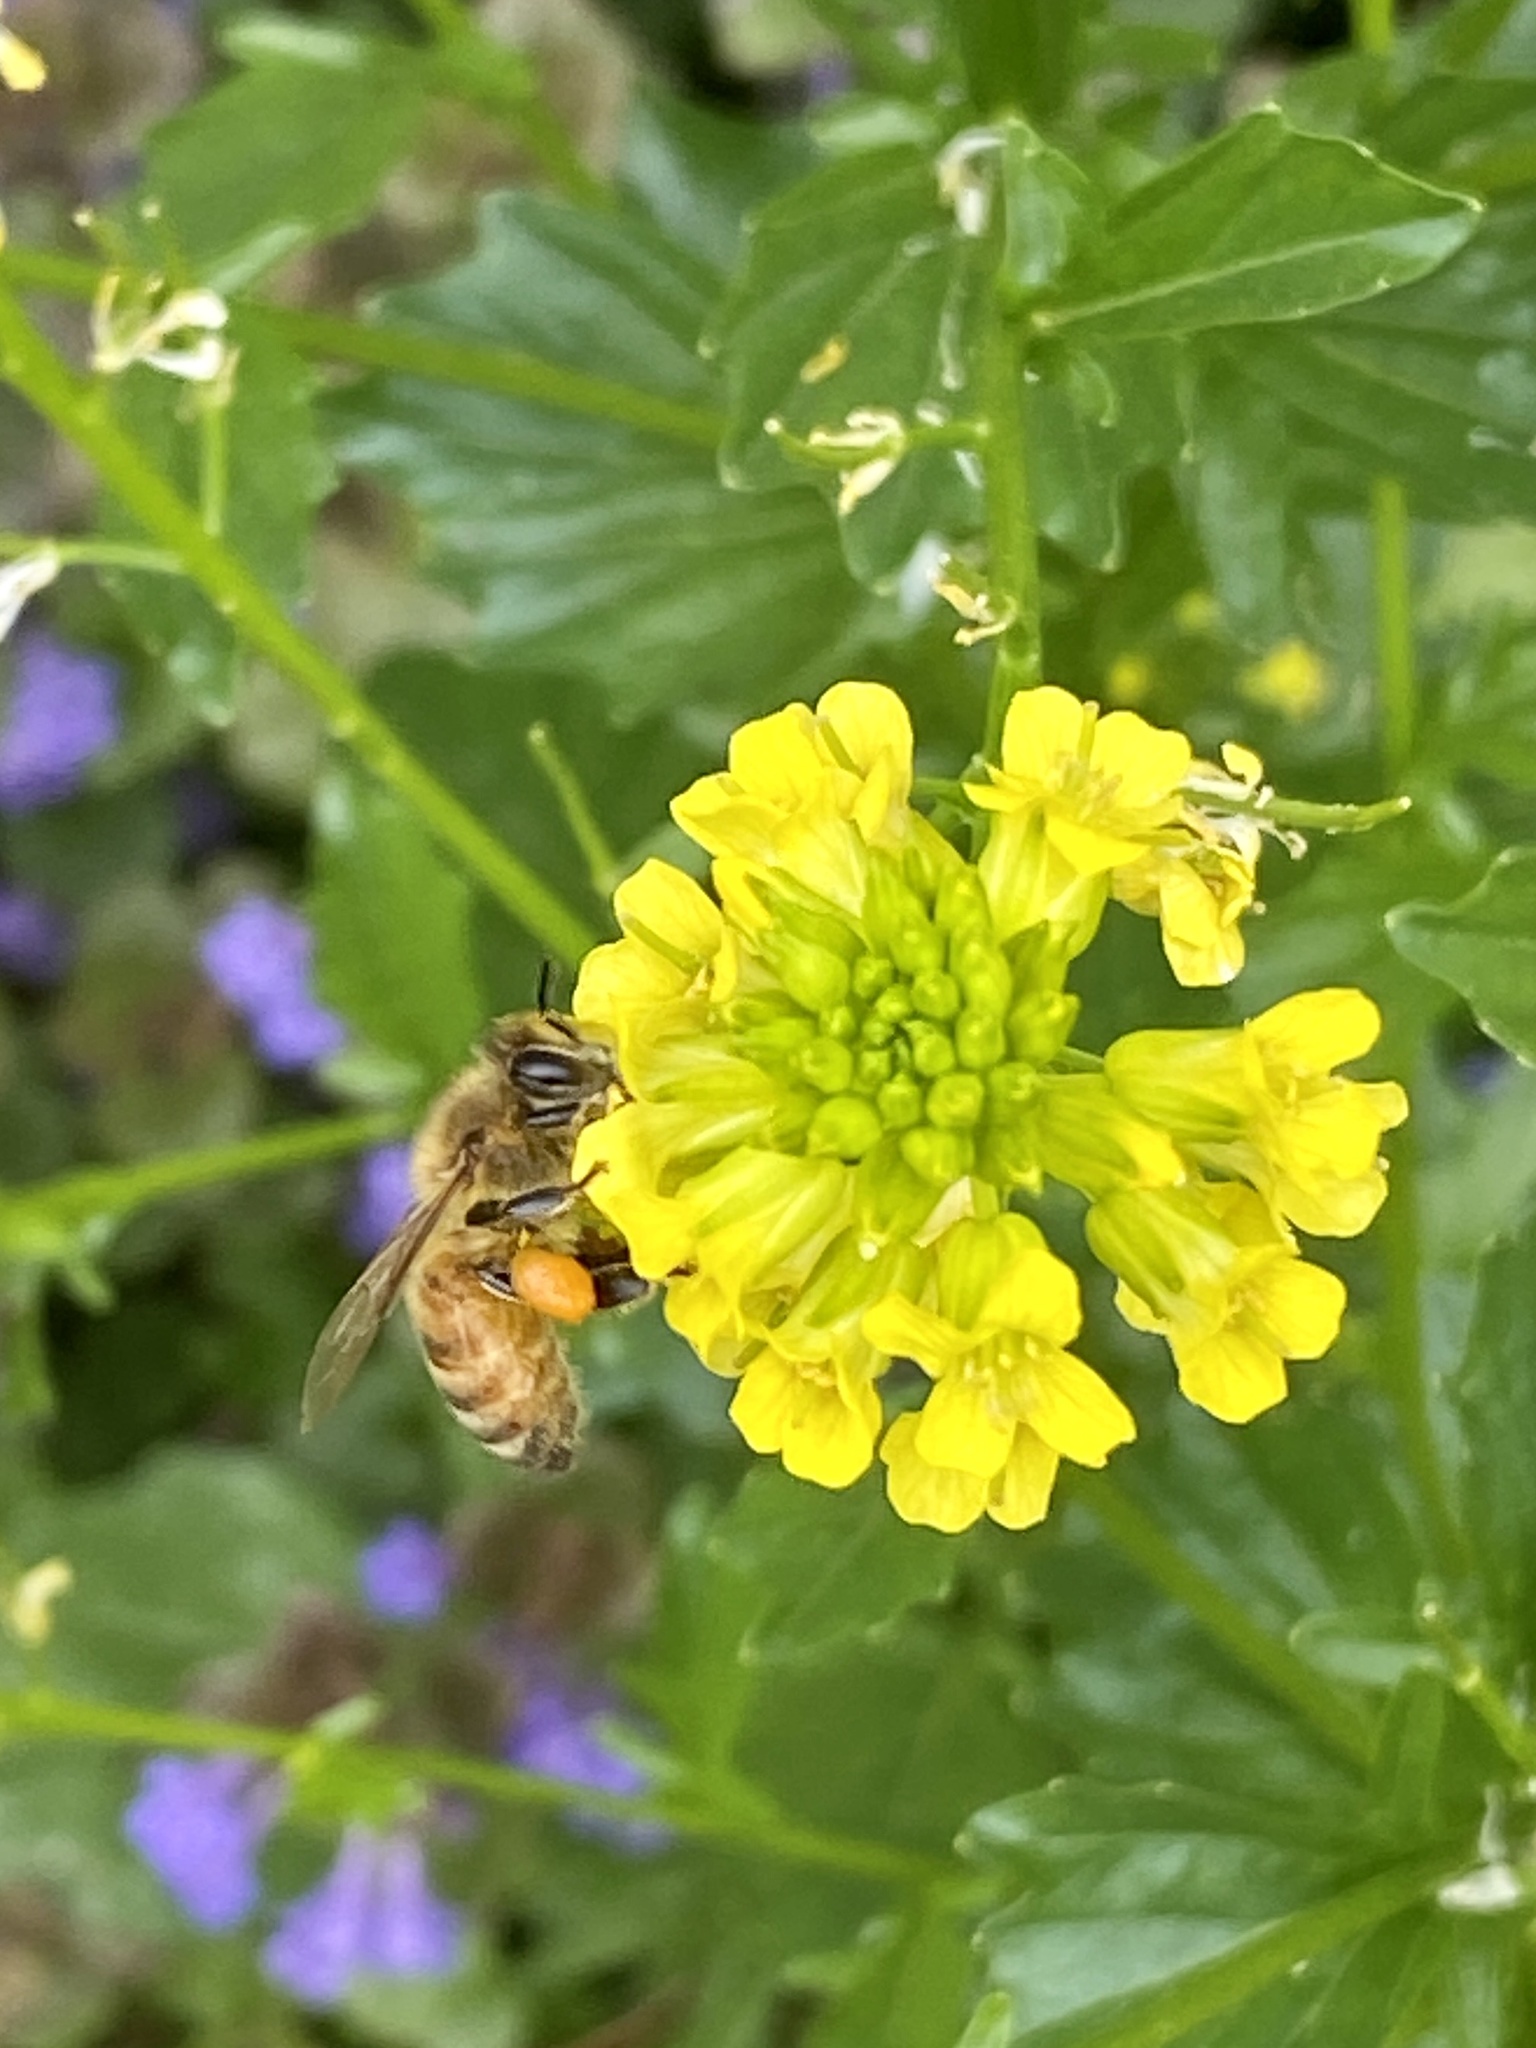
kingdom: Animalia
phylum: Arthropoda
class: Insecta
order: Hymenoptera
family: Apidae
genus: Apis
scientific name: Apis mellifera
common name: Honey bee
